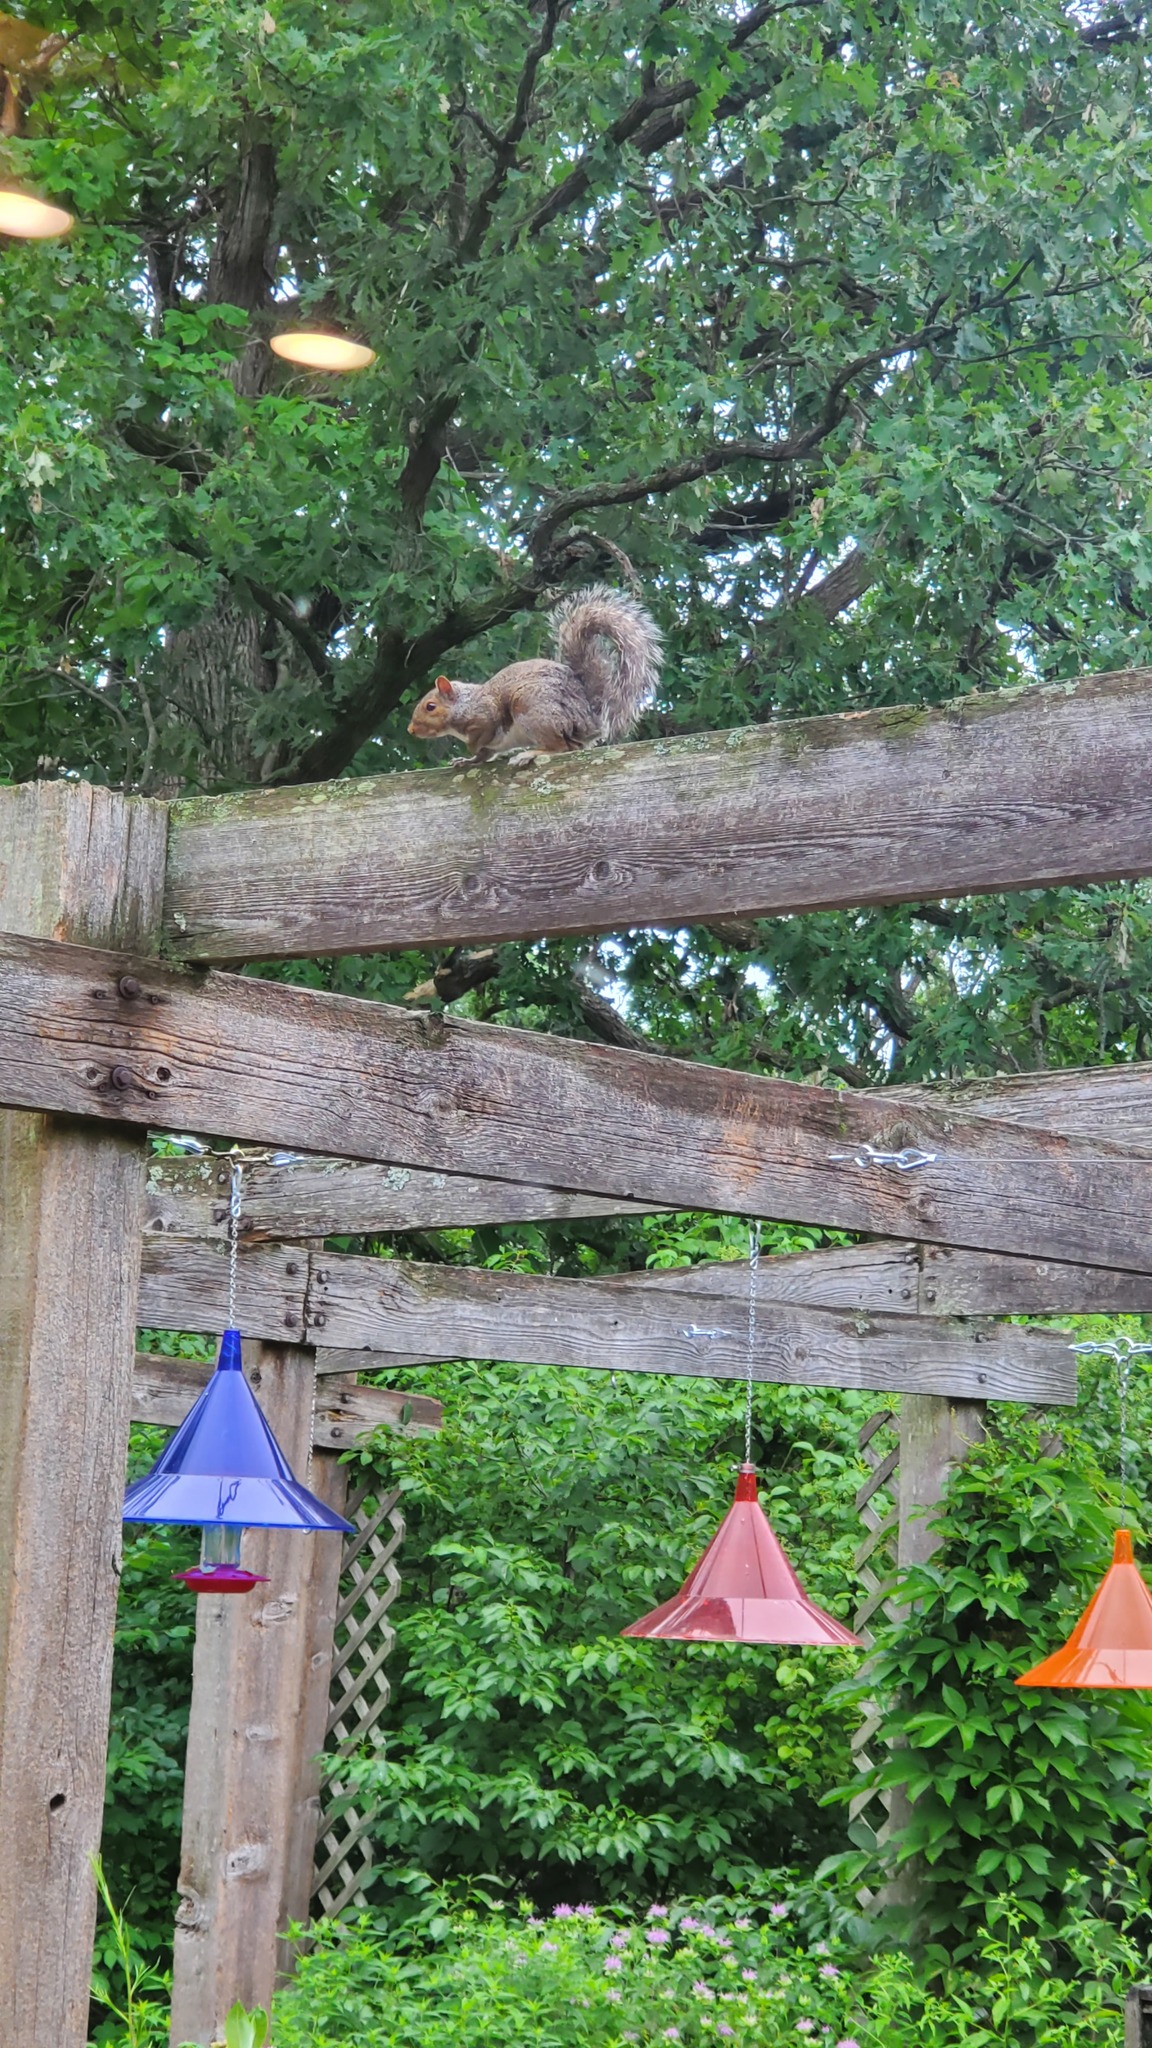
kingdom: Animalia
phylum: Chordata
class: Mammalia
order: Rodentia
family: Sciuridae
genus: Sciurus
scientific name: Sciurus carolinensis
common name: Eastern gray squirrel
